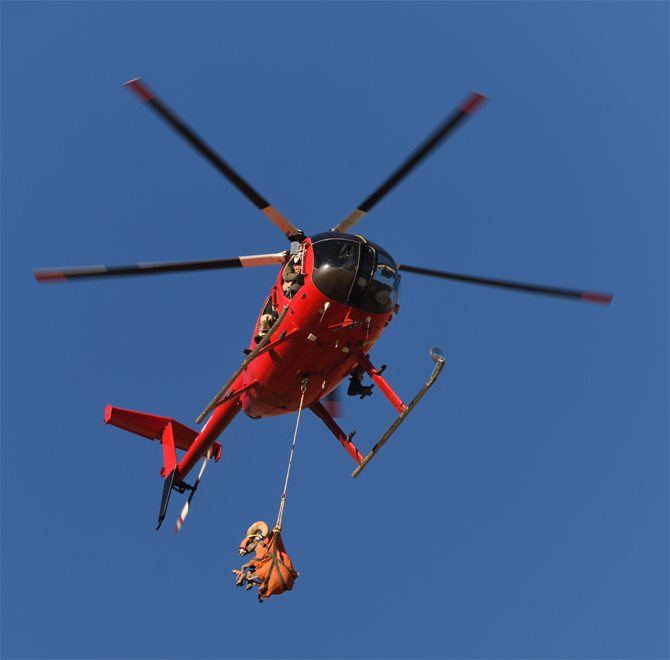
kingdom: Animalia
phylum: Chordata
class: Mammalia
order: Artiodactyla
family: Bovidae
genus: Ovis
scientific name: Ovis canadensis
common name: Bighorn sheep
